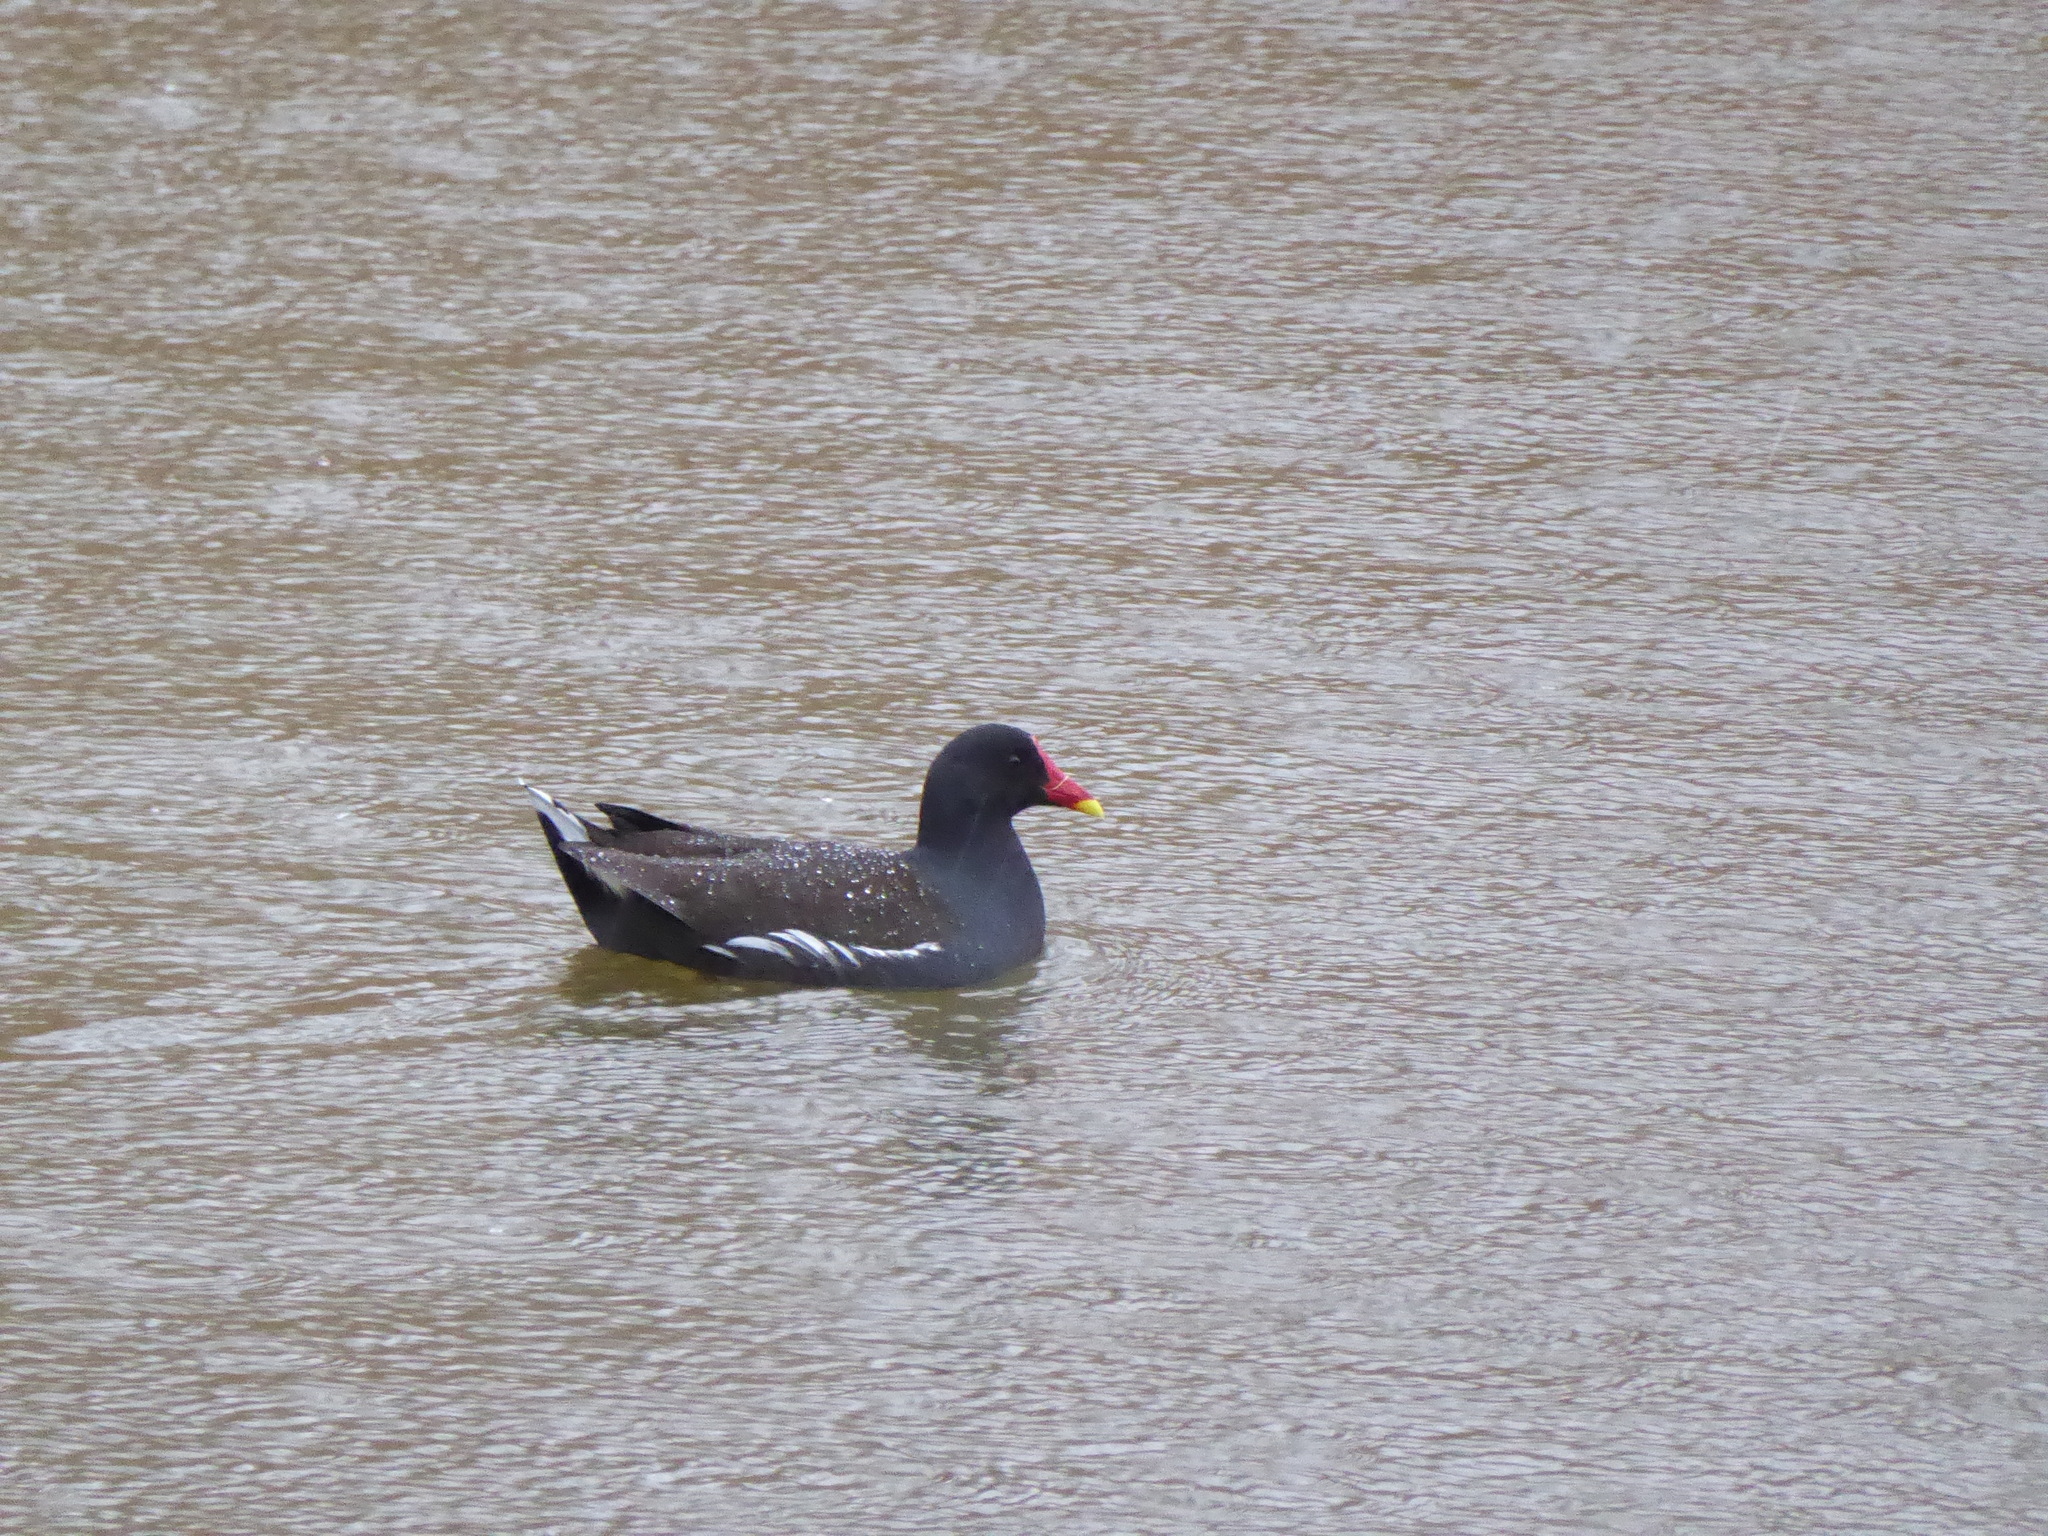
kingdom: Animalia
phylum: Chordata
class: Aves
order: Gruiformes
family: Rallidae
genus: Gallinula
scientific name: Gallinula chloropus
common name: Common moorhen
